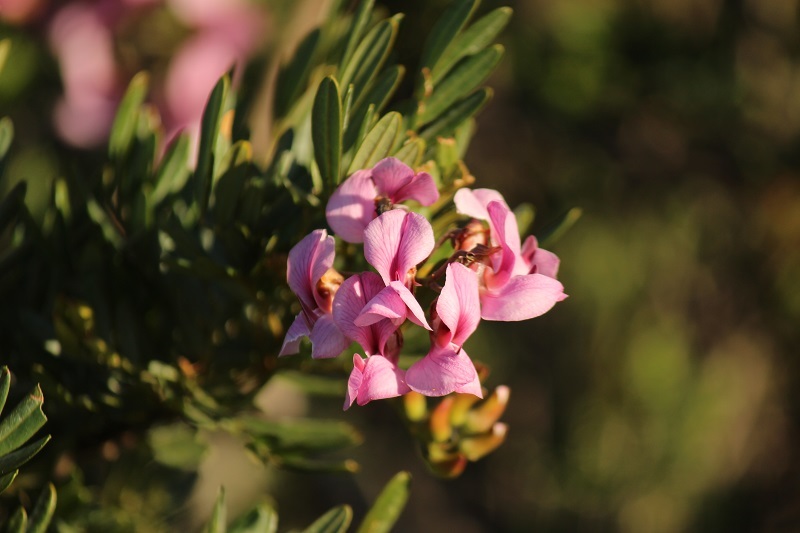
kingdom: Plantae
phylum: Tracheophyta
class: Magnoliopsida
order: Fabales
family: Fabaceae
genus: Virgilia
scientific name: Virgilia divaricata
